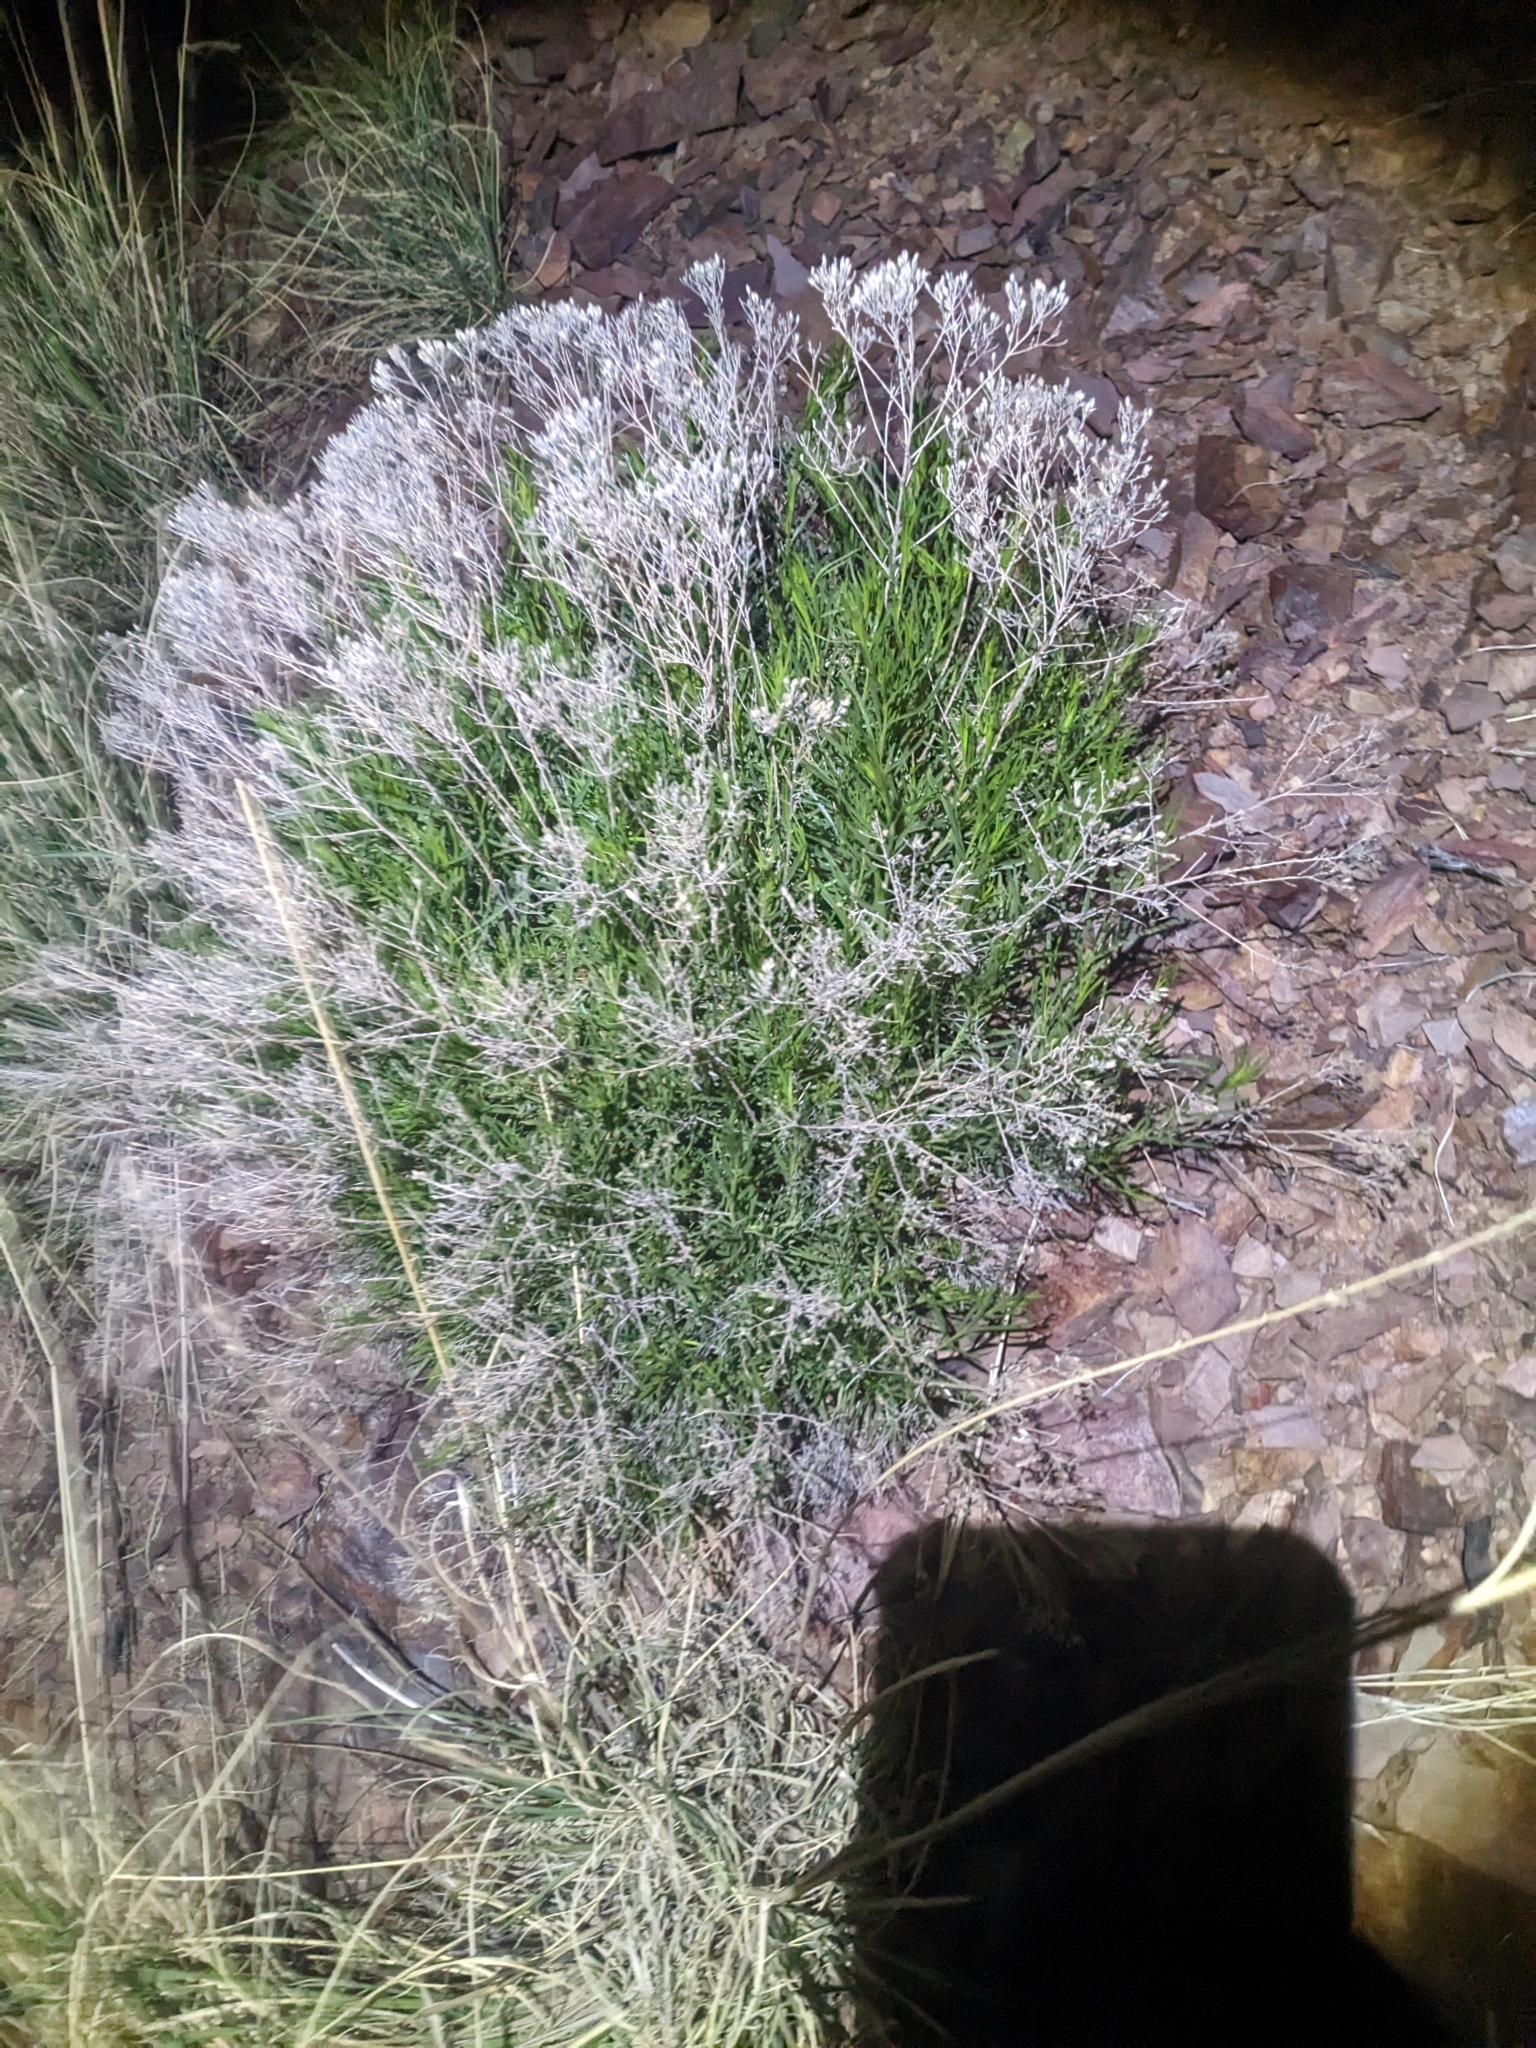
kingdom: Plantae
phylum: Tracheophyta
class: Magnoliopsida
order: Asterales
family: Asteraceae
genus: Gutierrezia
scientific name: Gutierrezia sarothrae
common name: Broom snakeweed
